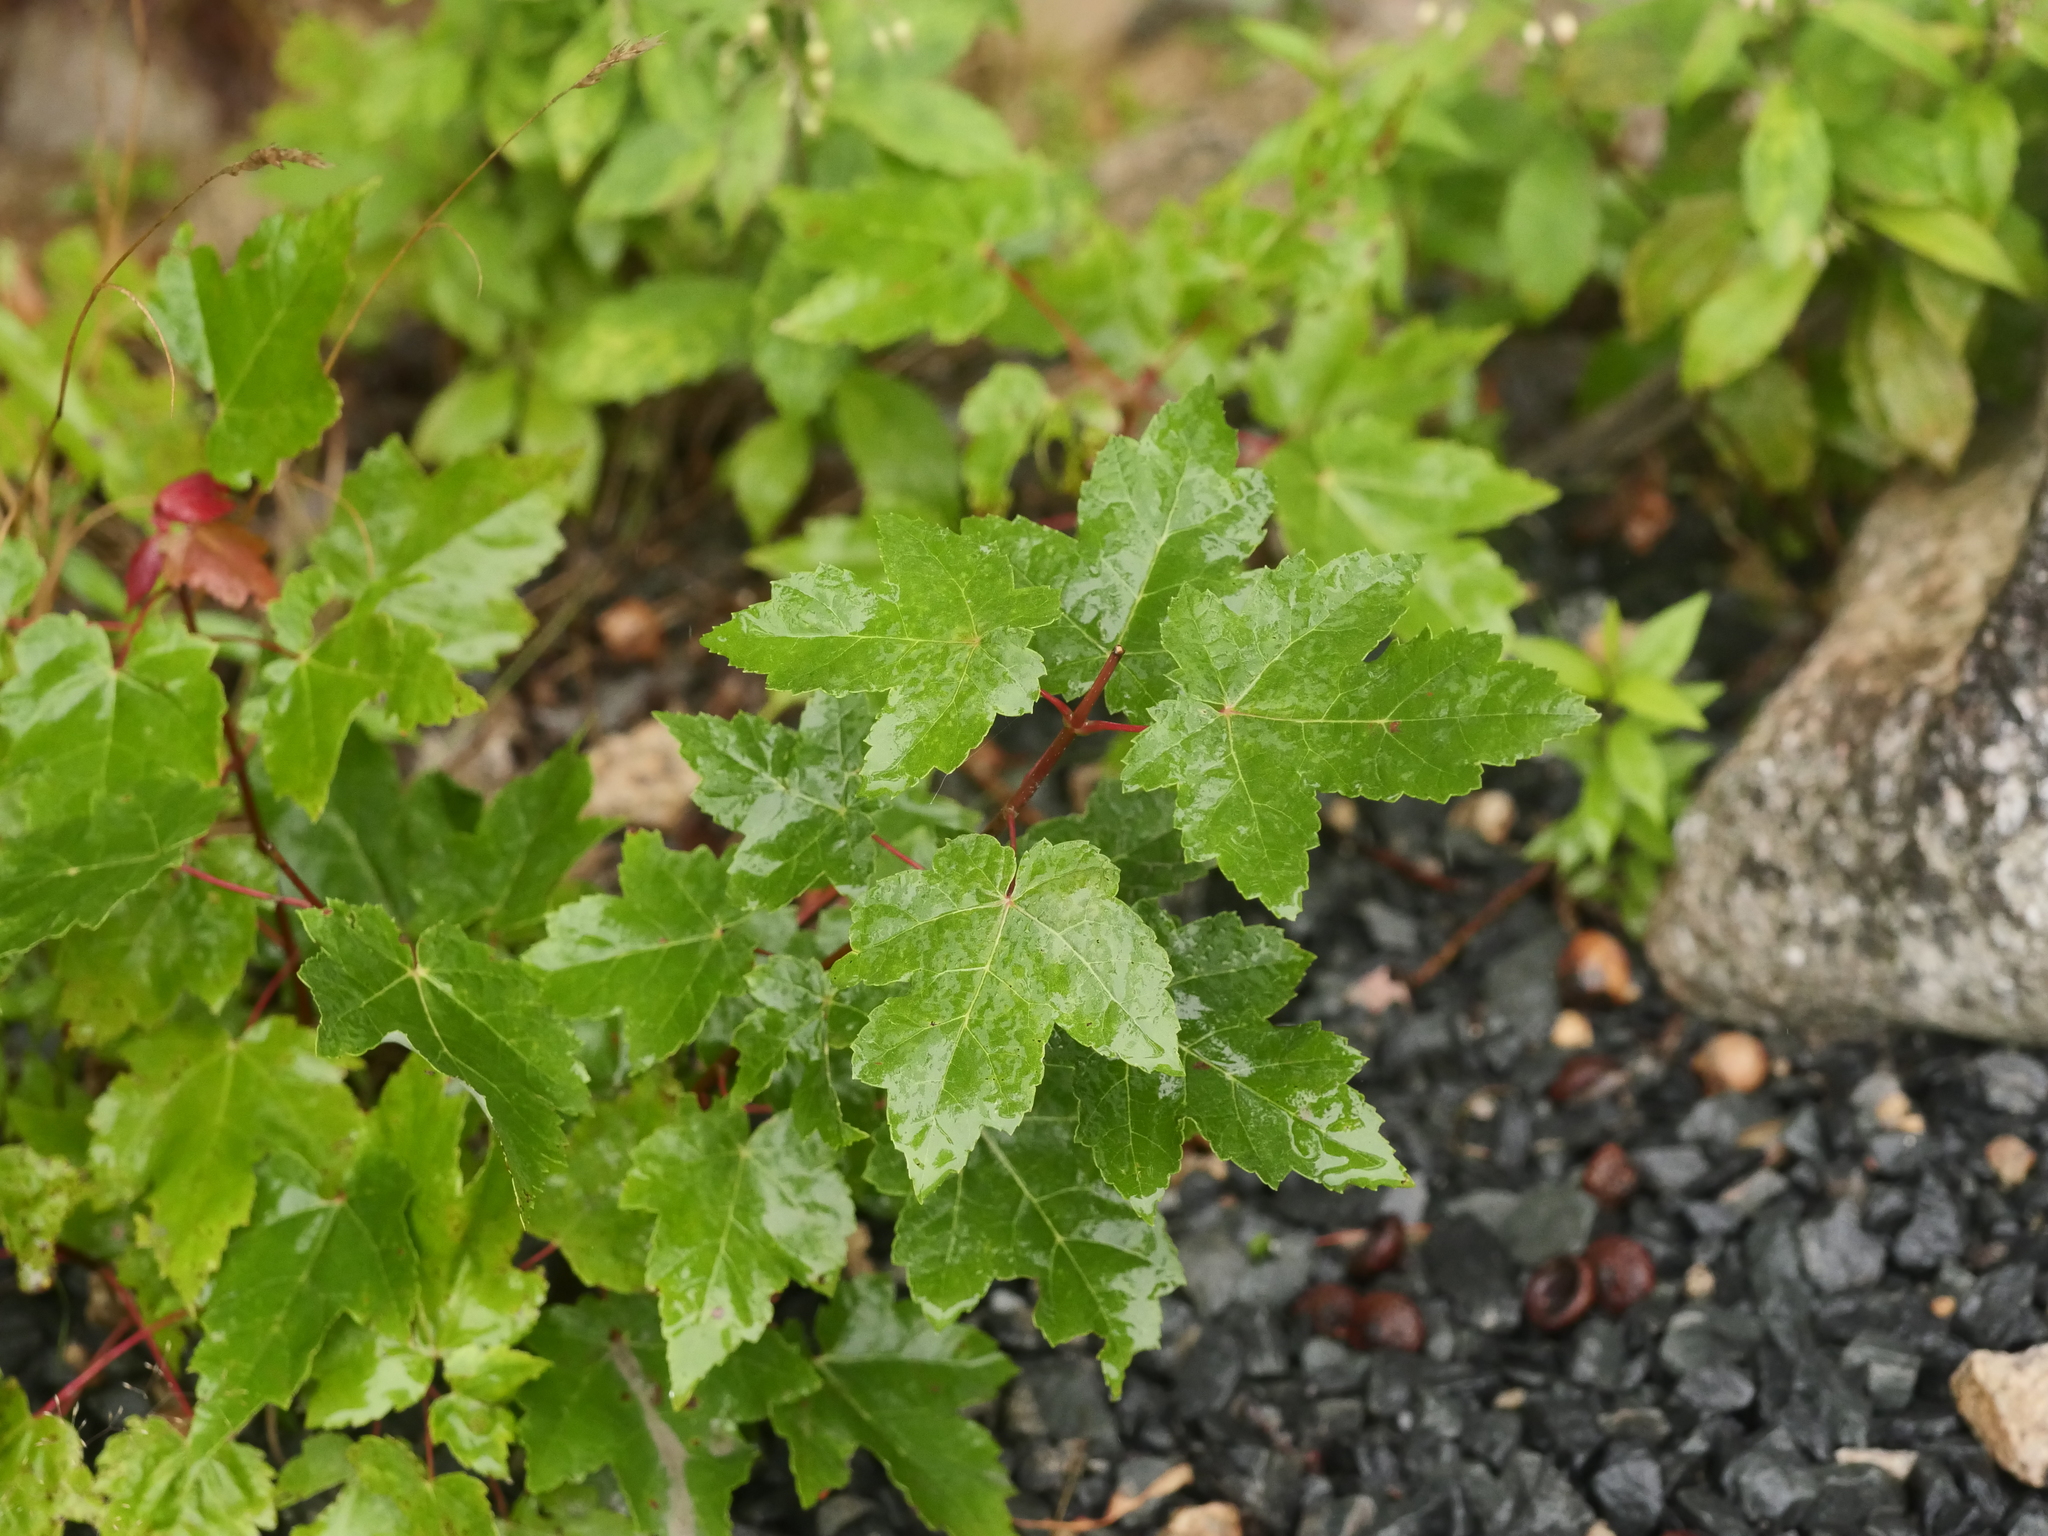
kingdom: Plantae
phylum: Tracheophyta
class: Magnoliopsida
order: Sapindales
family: Sapindaceae
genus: Acer
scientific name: Acer rubrum
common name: Red maple
